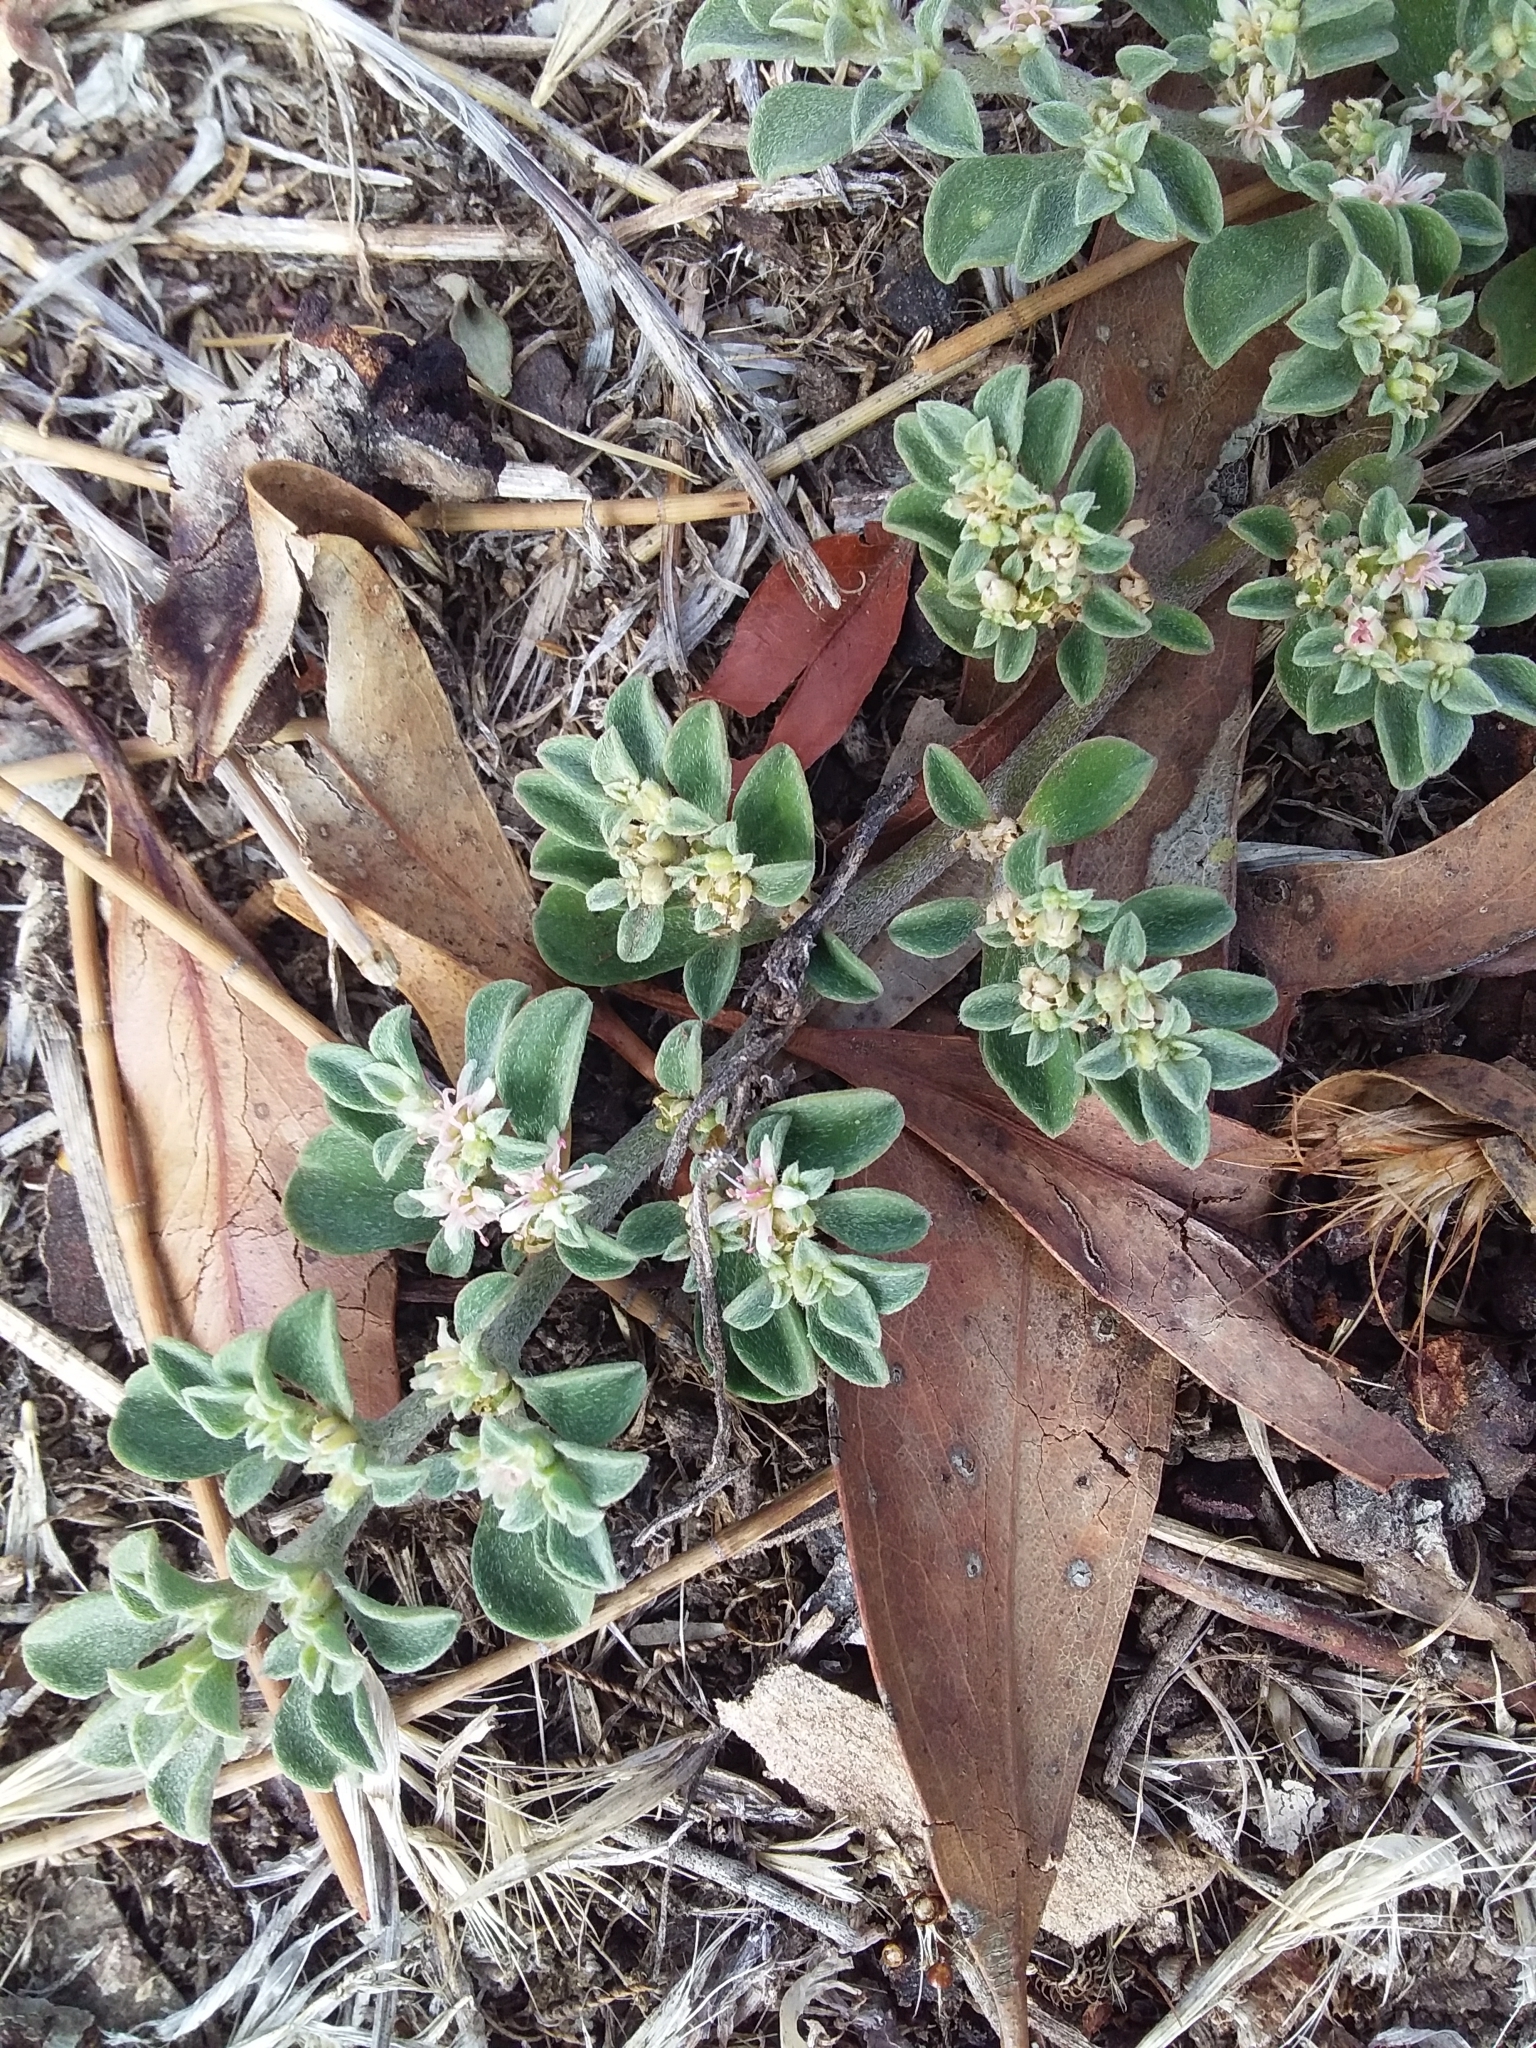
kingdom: Plantae
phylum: Tracheophyta
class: Magnoliopsida
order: Caryophyllales
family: Aizoaceae
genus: Aizoon
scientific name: Aizoon pubescens
